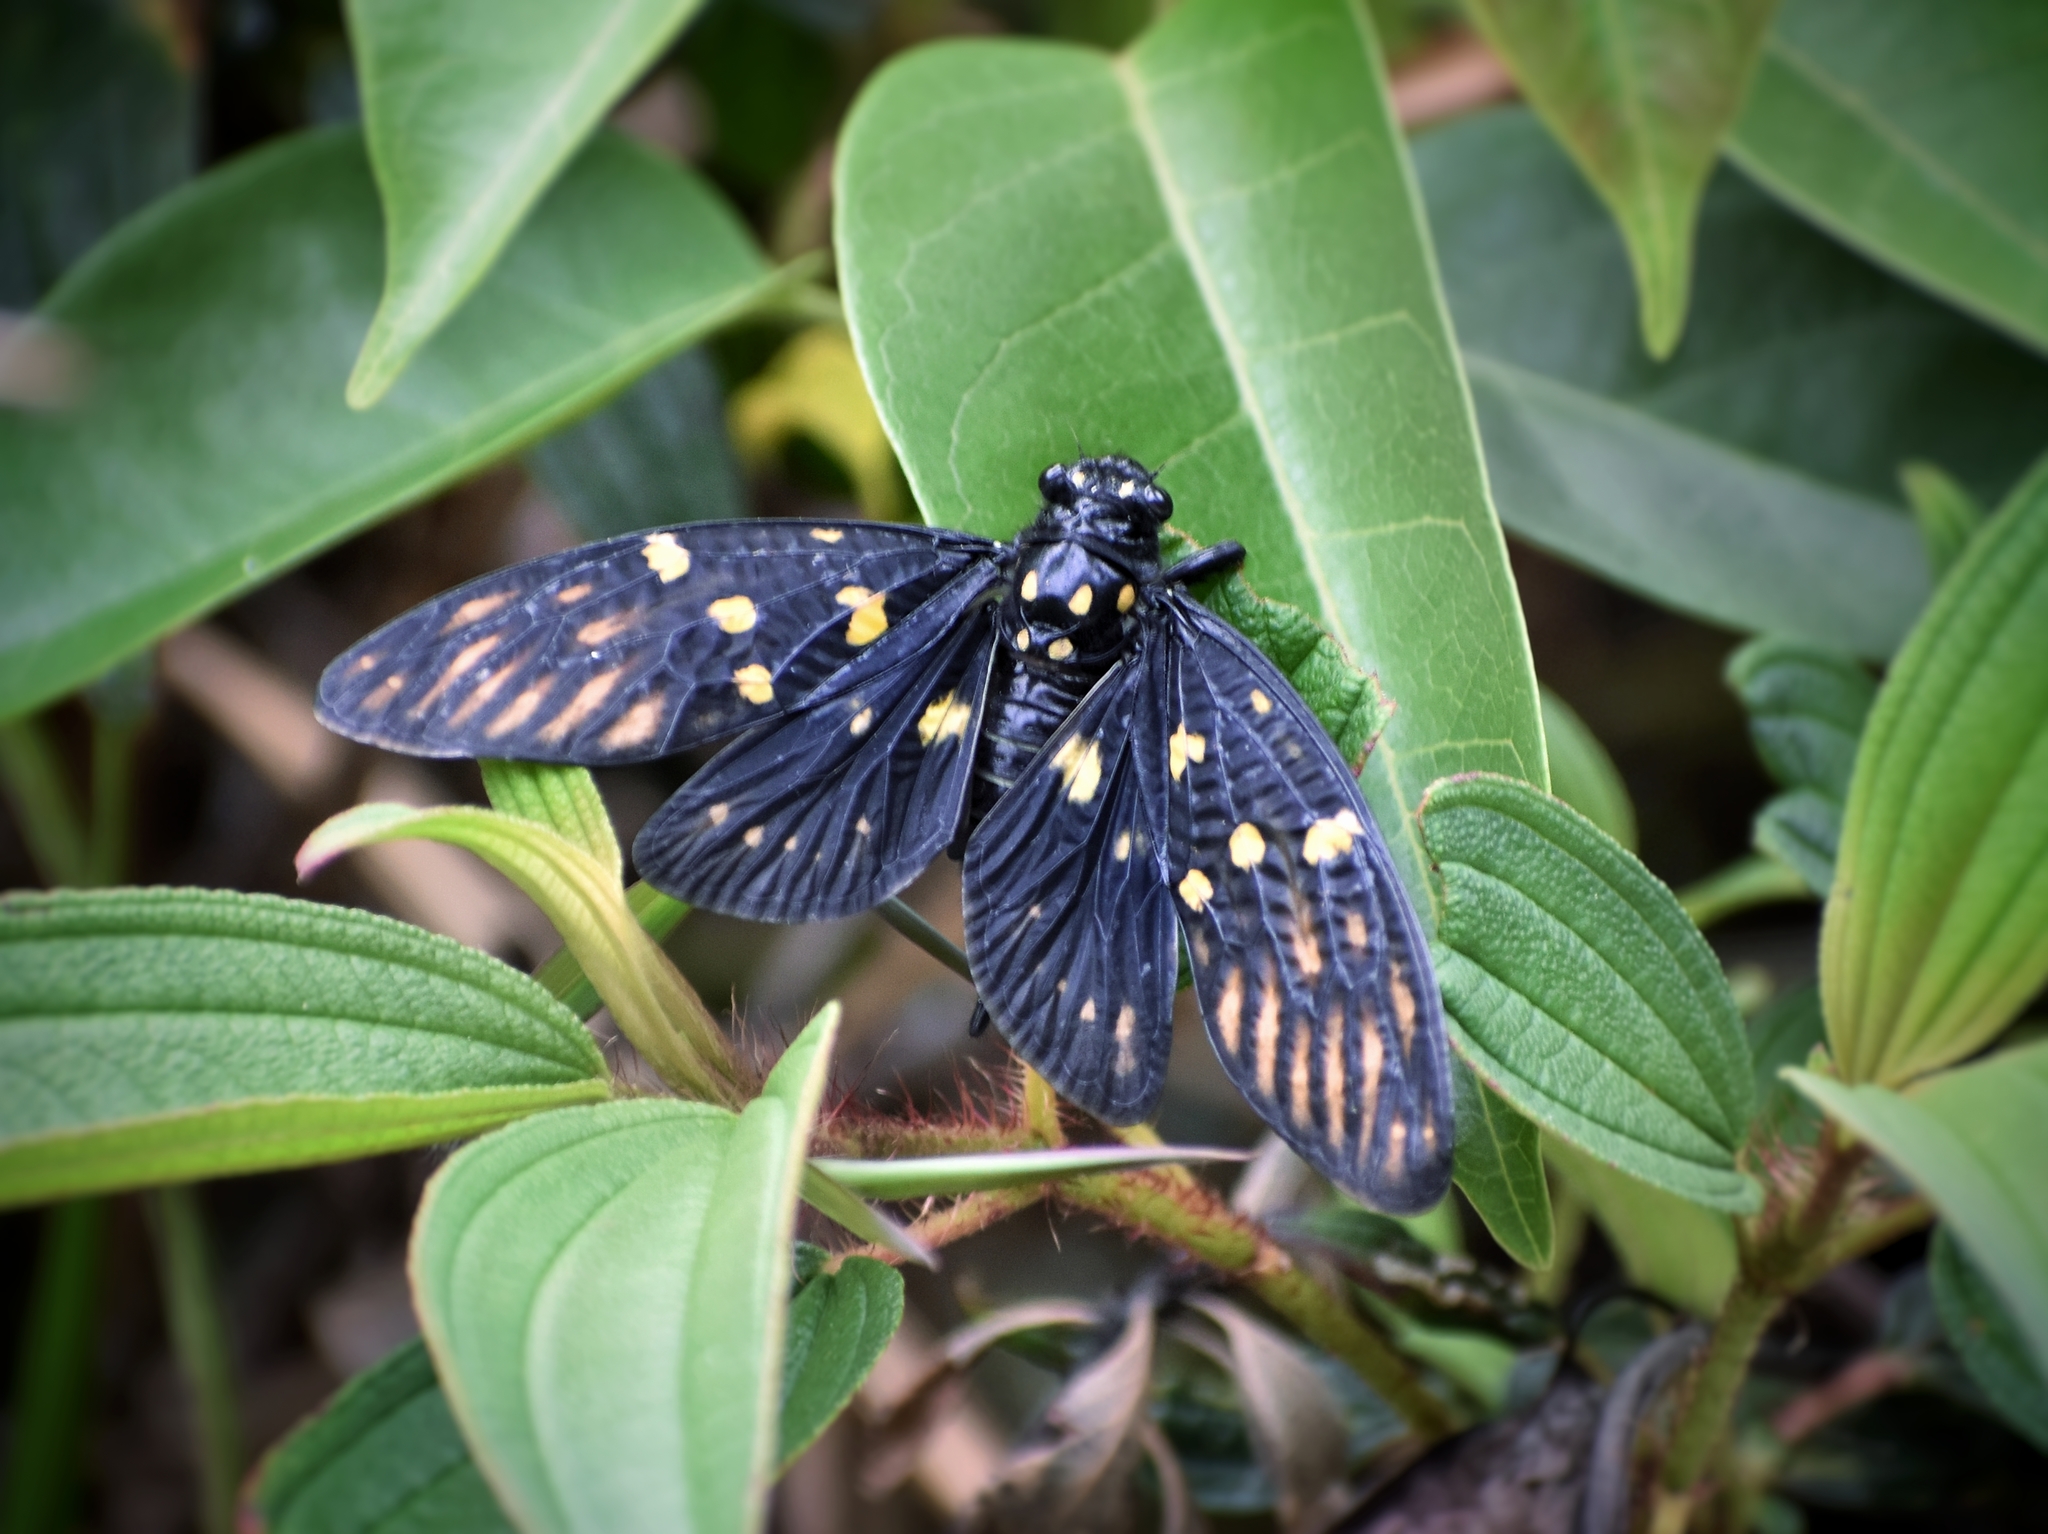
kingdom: Animalia
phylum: Arthropoda
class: Insecta
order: Hemiptera
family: Cicadidae
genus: Gaeana
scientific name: Gaeana maculata
